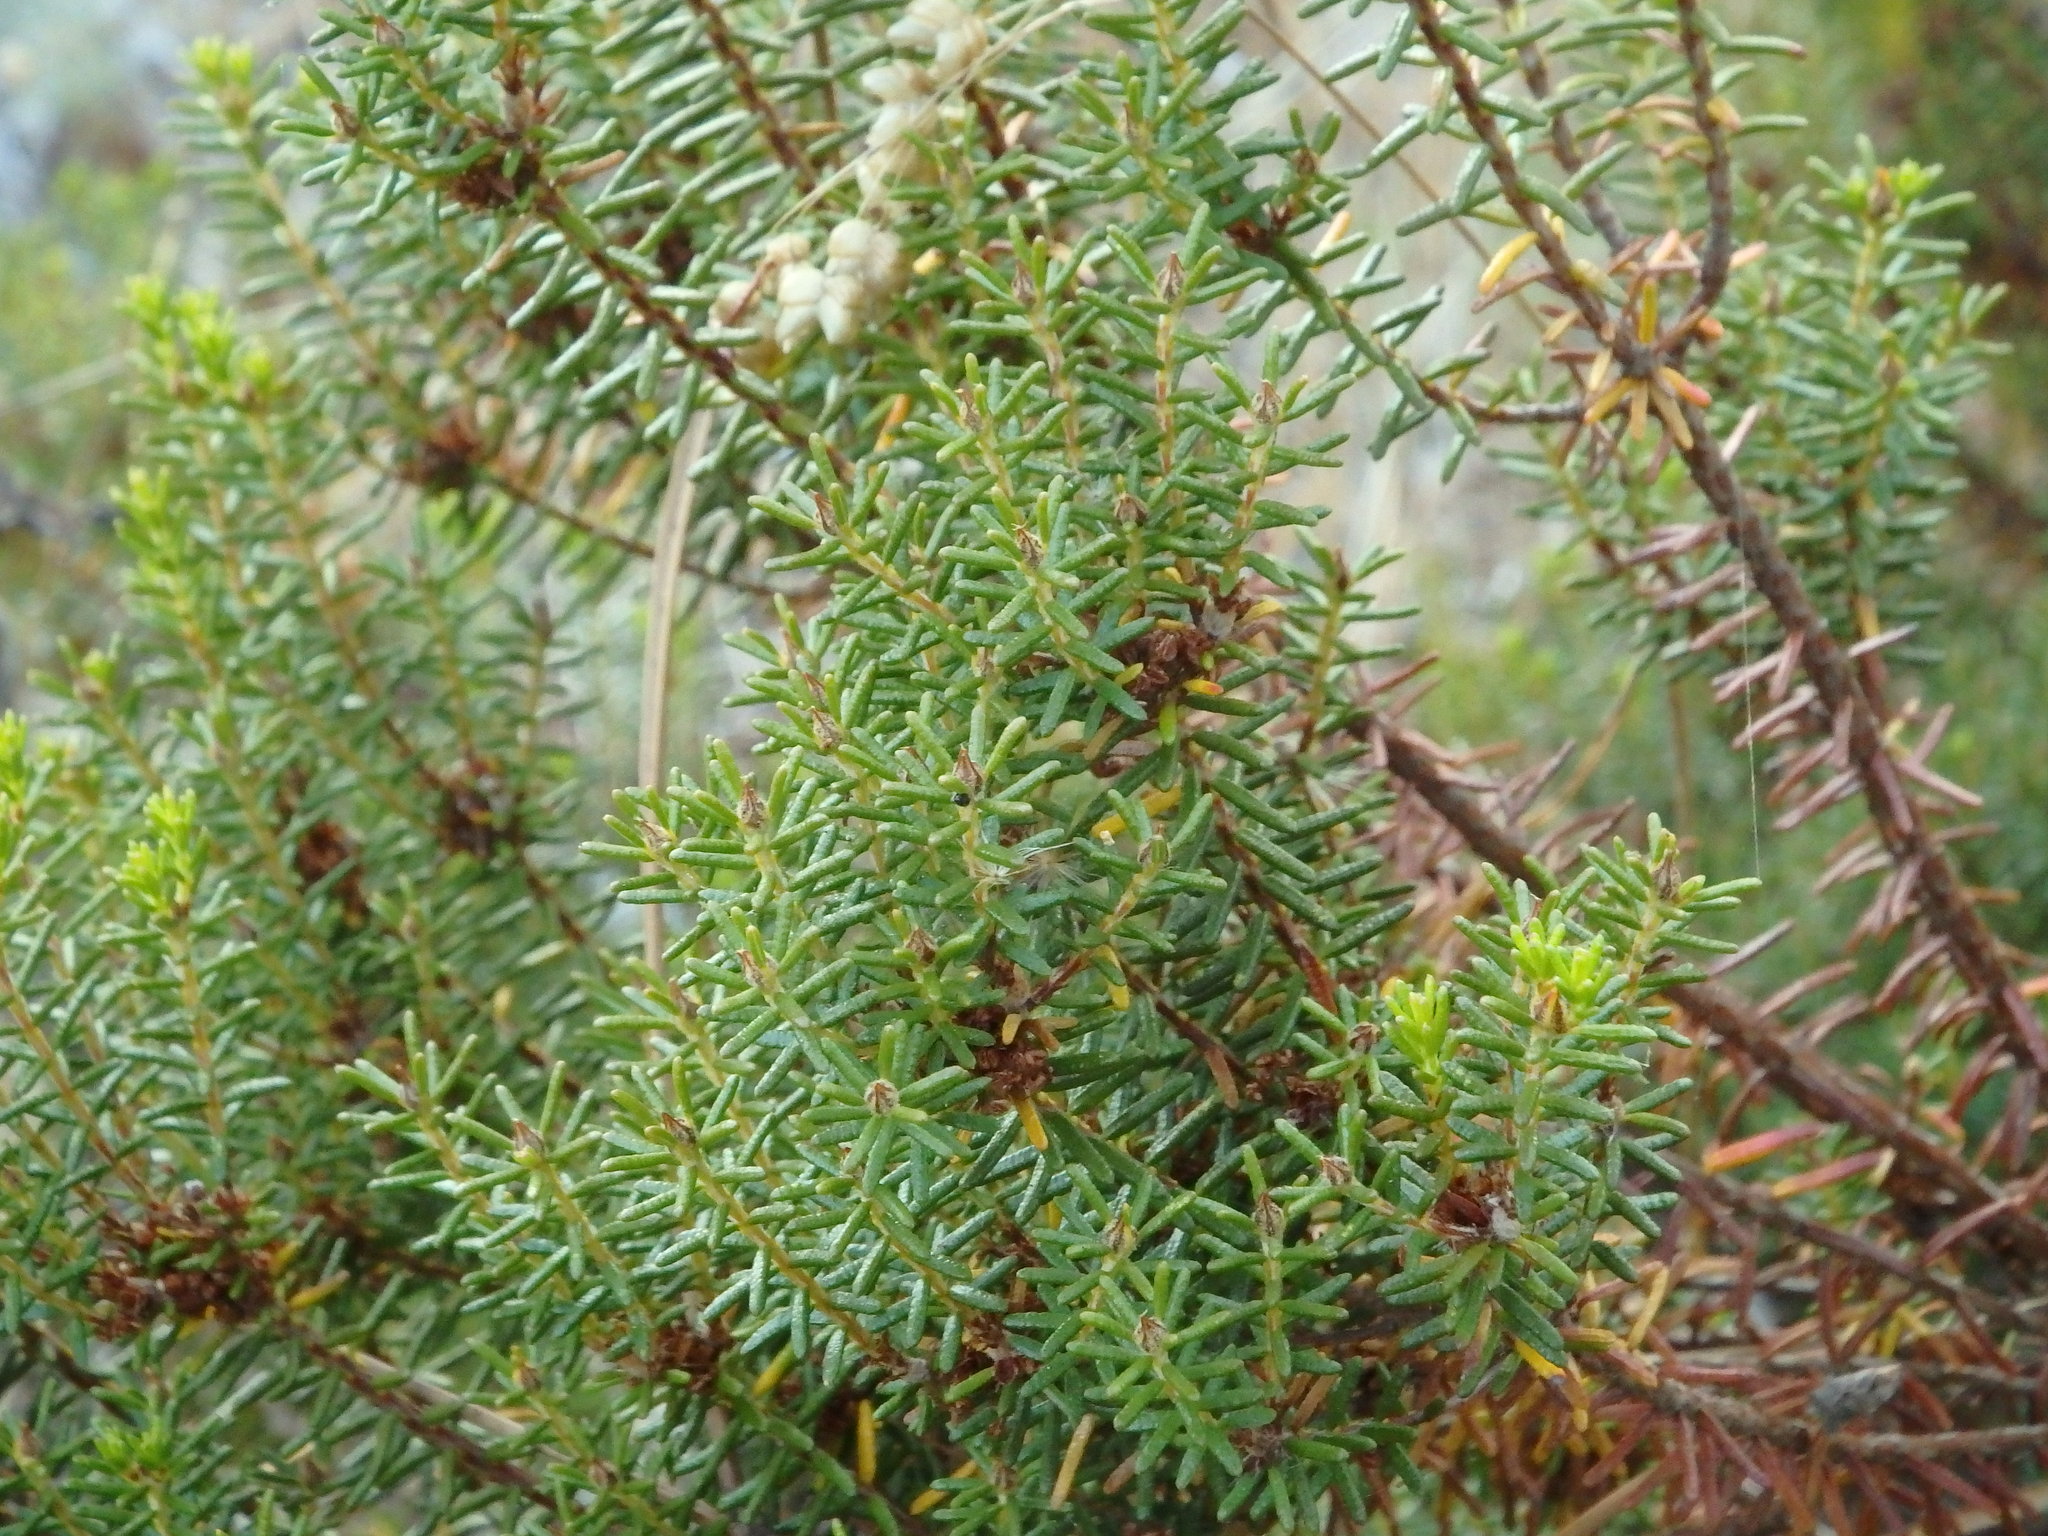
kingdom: Plantae
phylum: Tracheophyta
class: Magnoliopsida
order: Ericales
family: Ericaceae
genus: Corema
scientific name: Corema album
